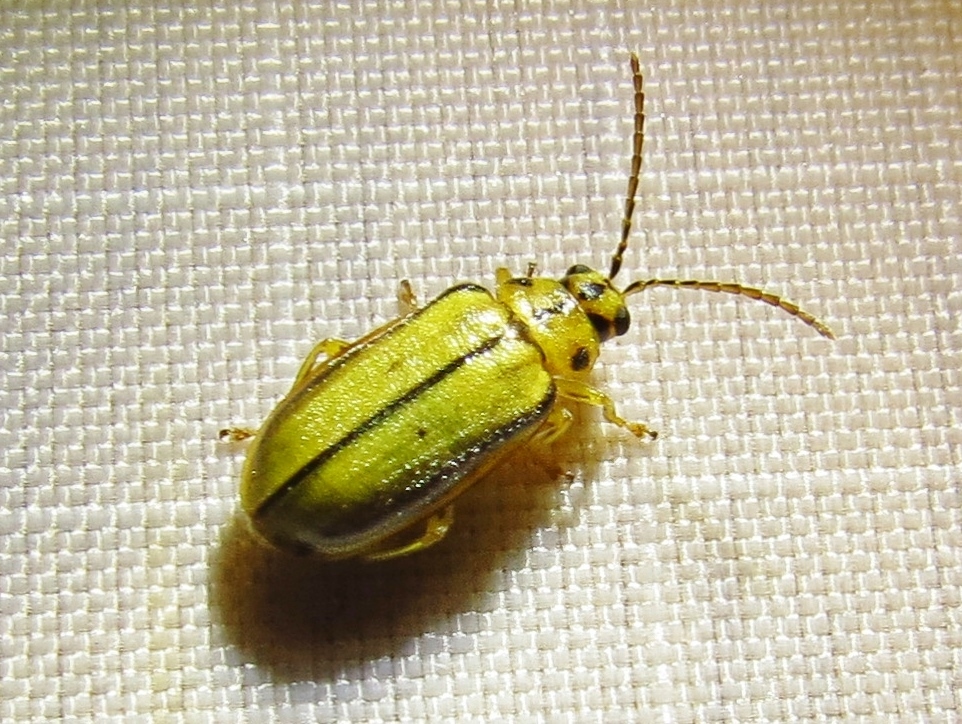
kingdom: Animalia
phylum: Arthropoda
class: Insecta
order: Coleoptera
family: Chrysomelidae
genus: Xanthogaleruca
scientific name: Xanthogaleruca luteola
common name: Elm leaf beetle
